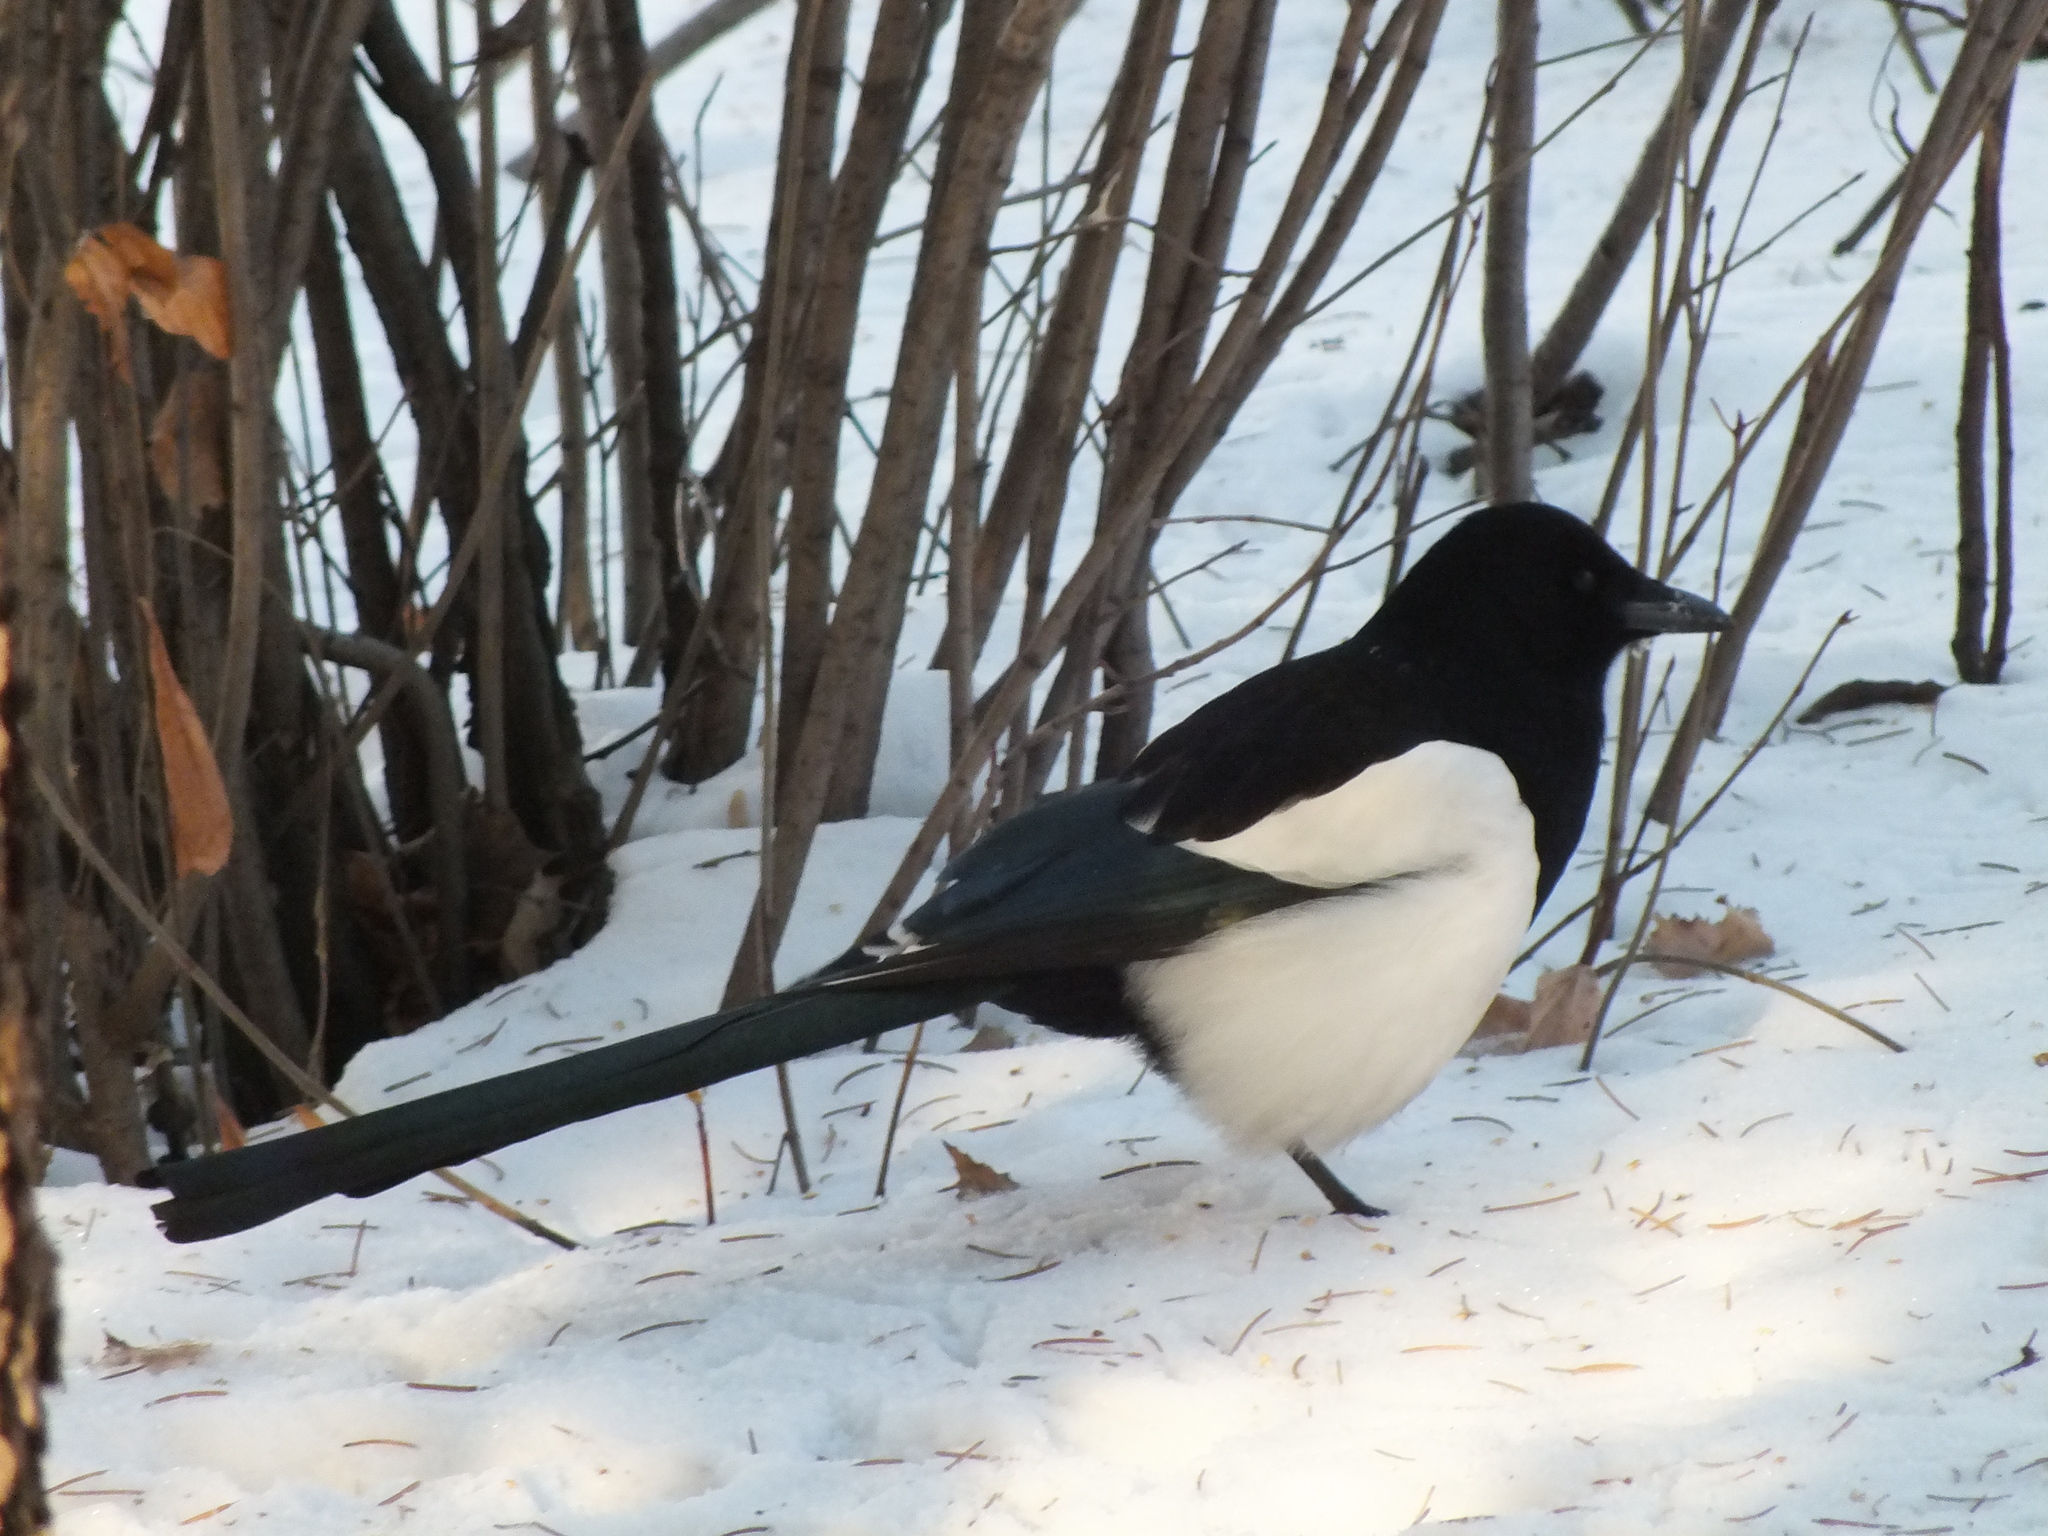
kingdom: Animalia
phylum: Chordata
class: Aves
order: Passeriformes
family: Corvidae
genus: Pica
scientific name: Pica pica
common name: Eurasian magpie
